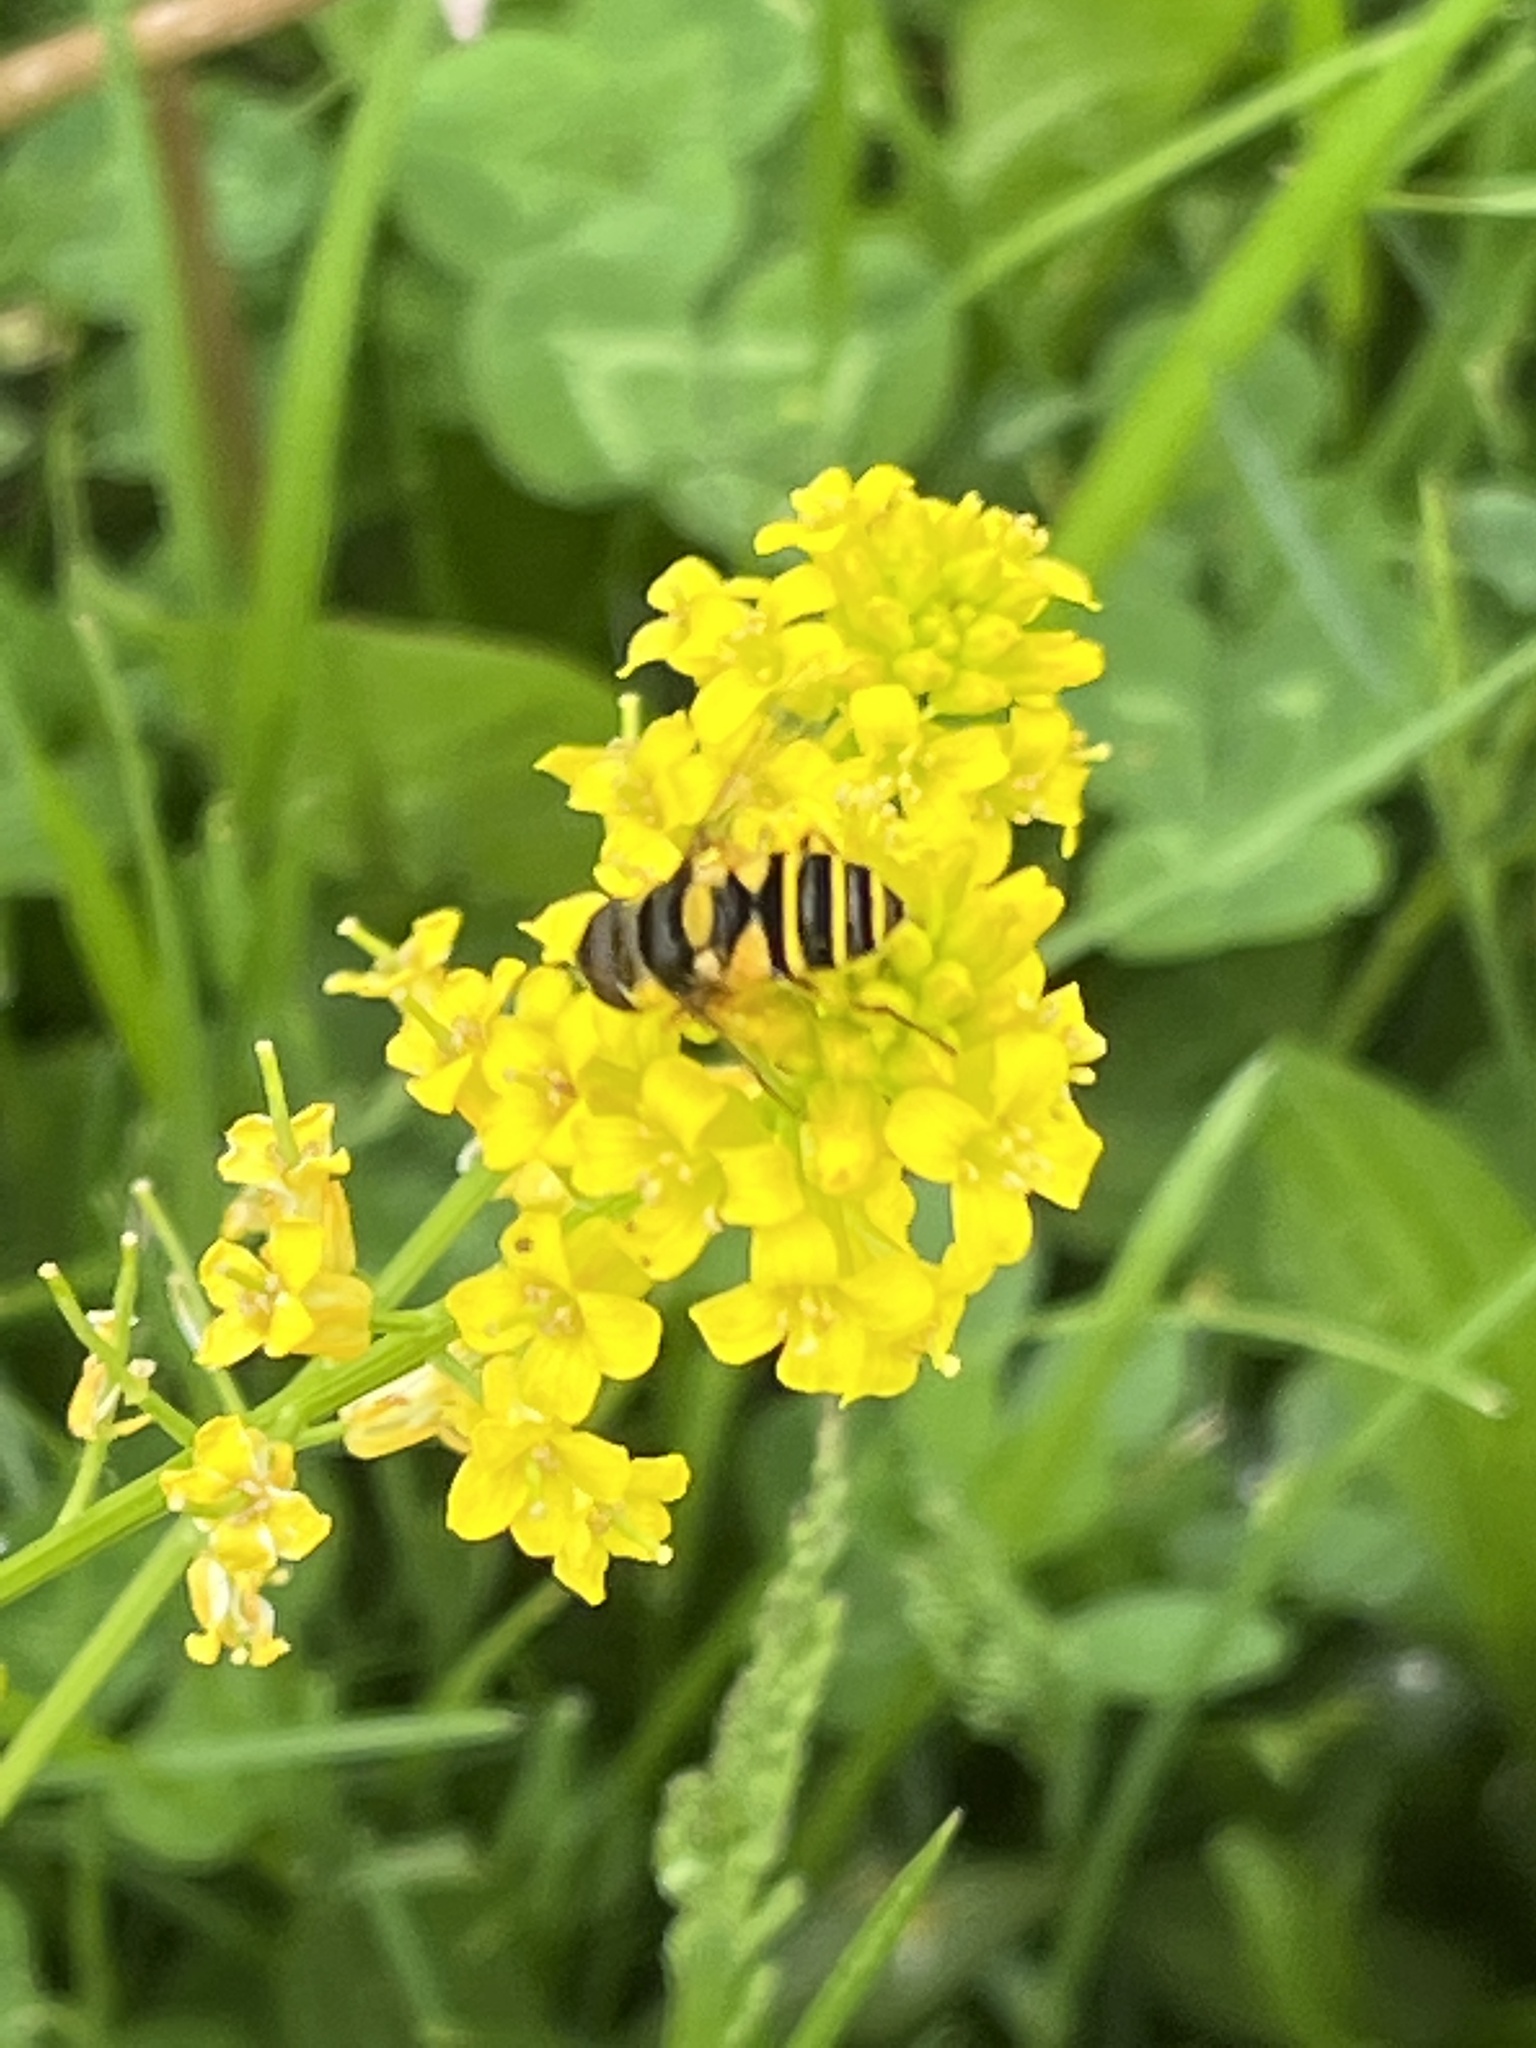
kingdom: Animalia
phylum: Arthropoda
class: Insecta
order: Diptera
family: Syrphidae
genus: Eristalis
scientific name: Eristalis transversa
